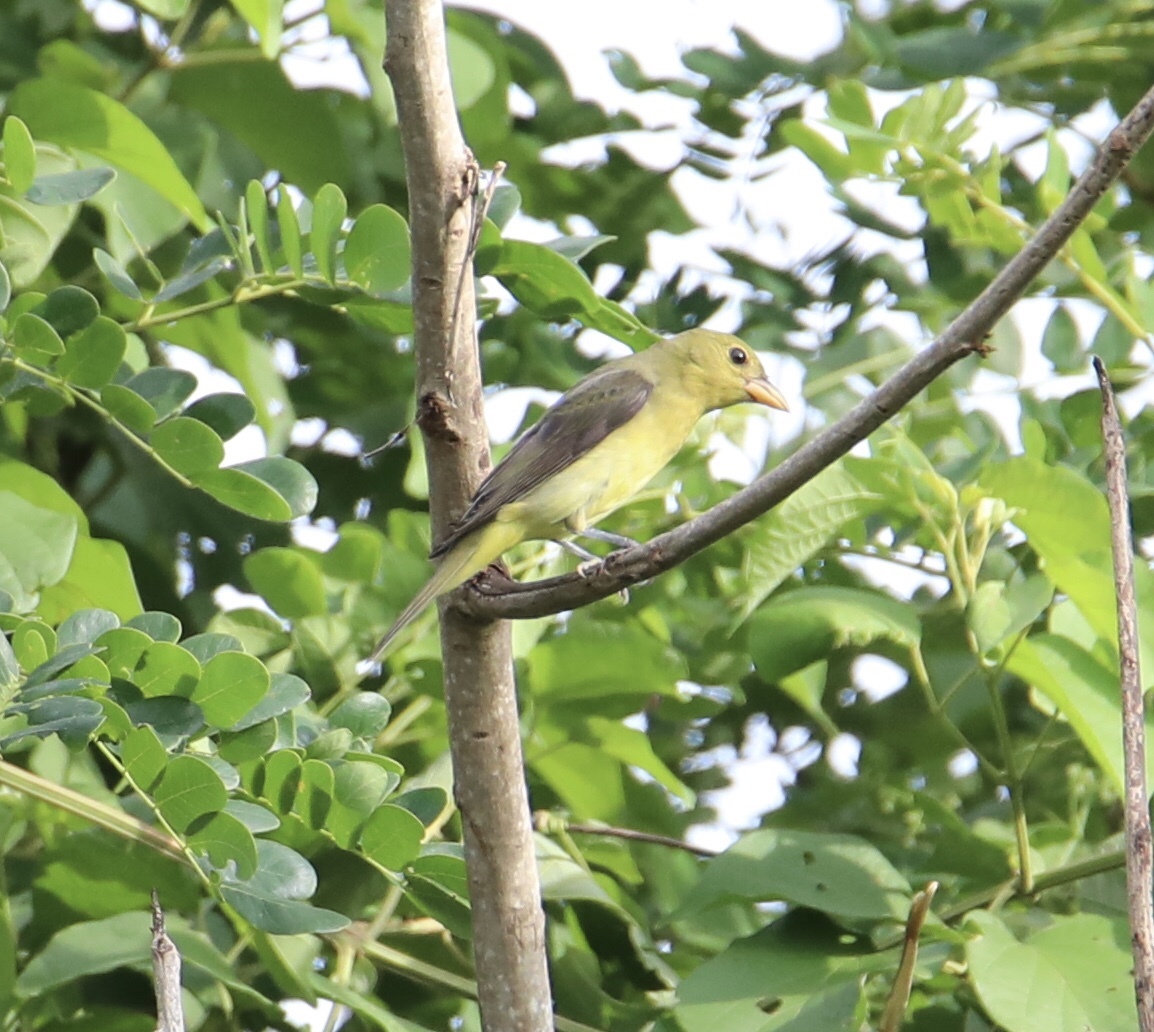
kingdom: Animalia
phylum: Chordata
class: Aves
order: Passeriformes
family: Cardinalidae
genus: Piranga
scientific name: Piranga olivacea
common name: Scarlet tanager
